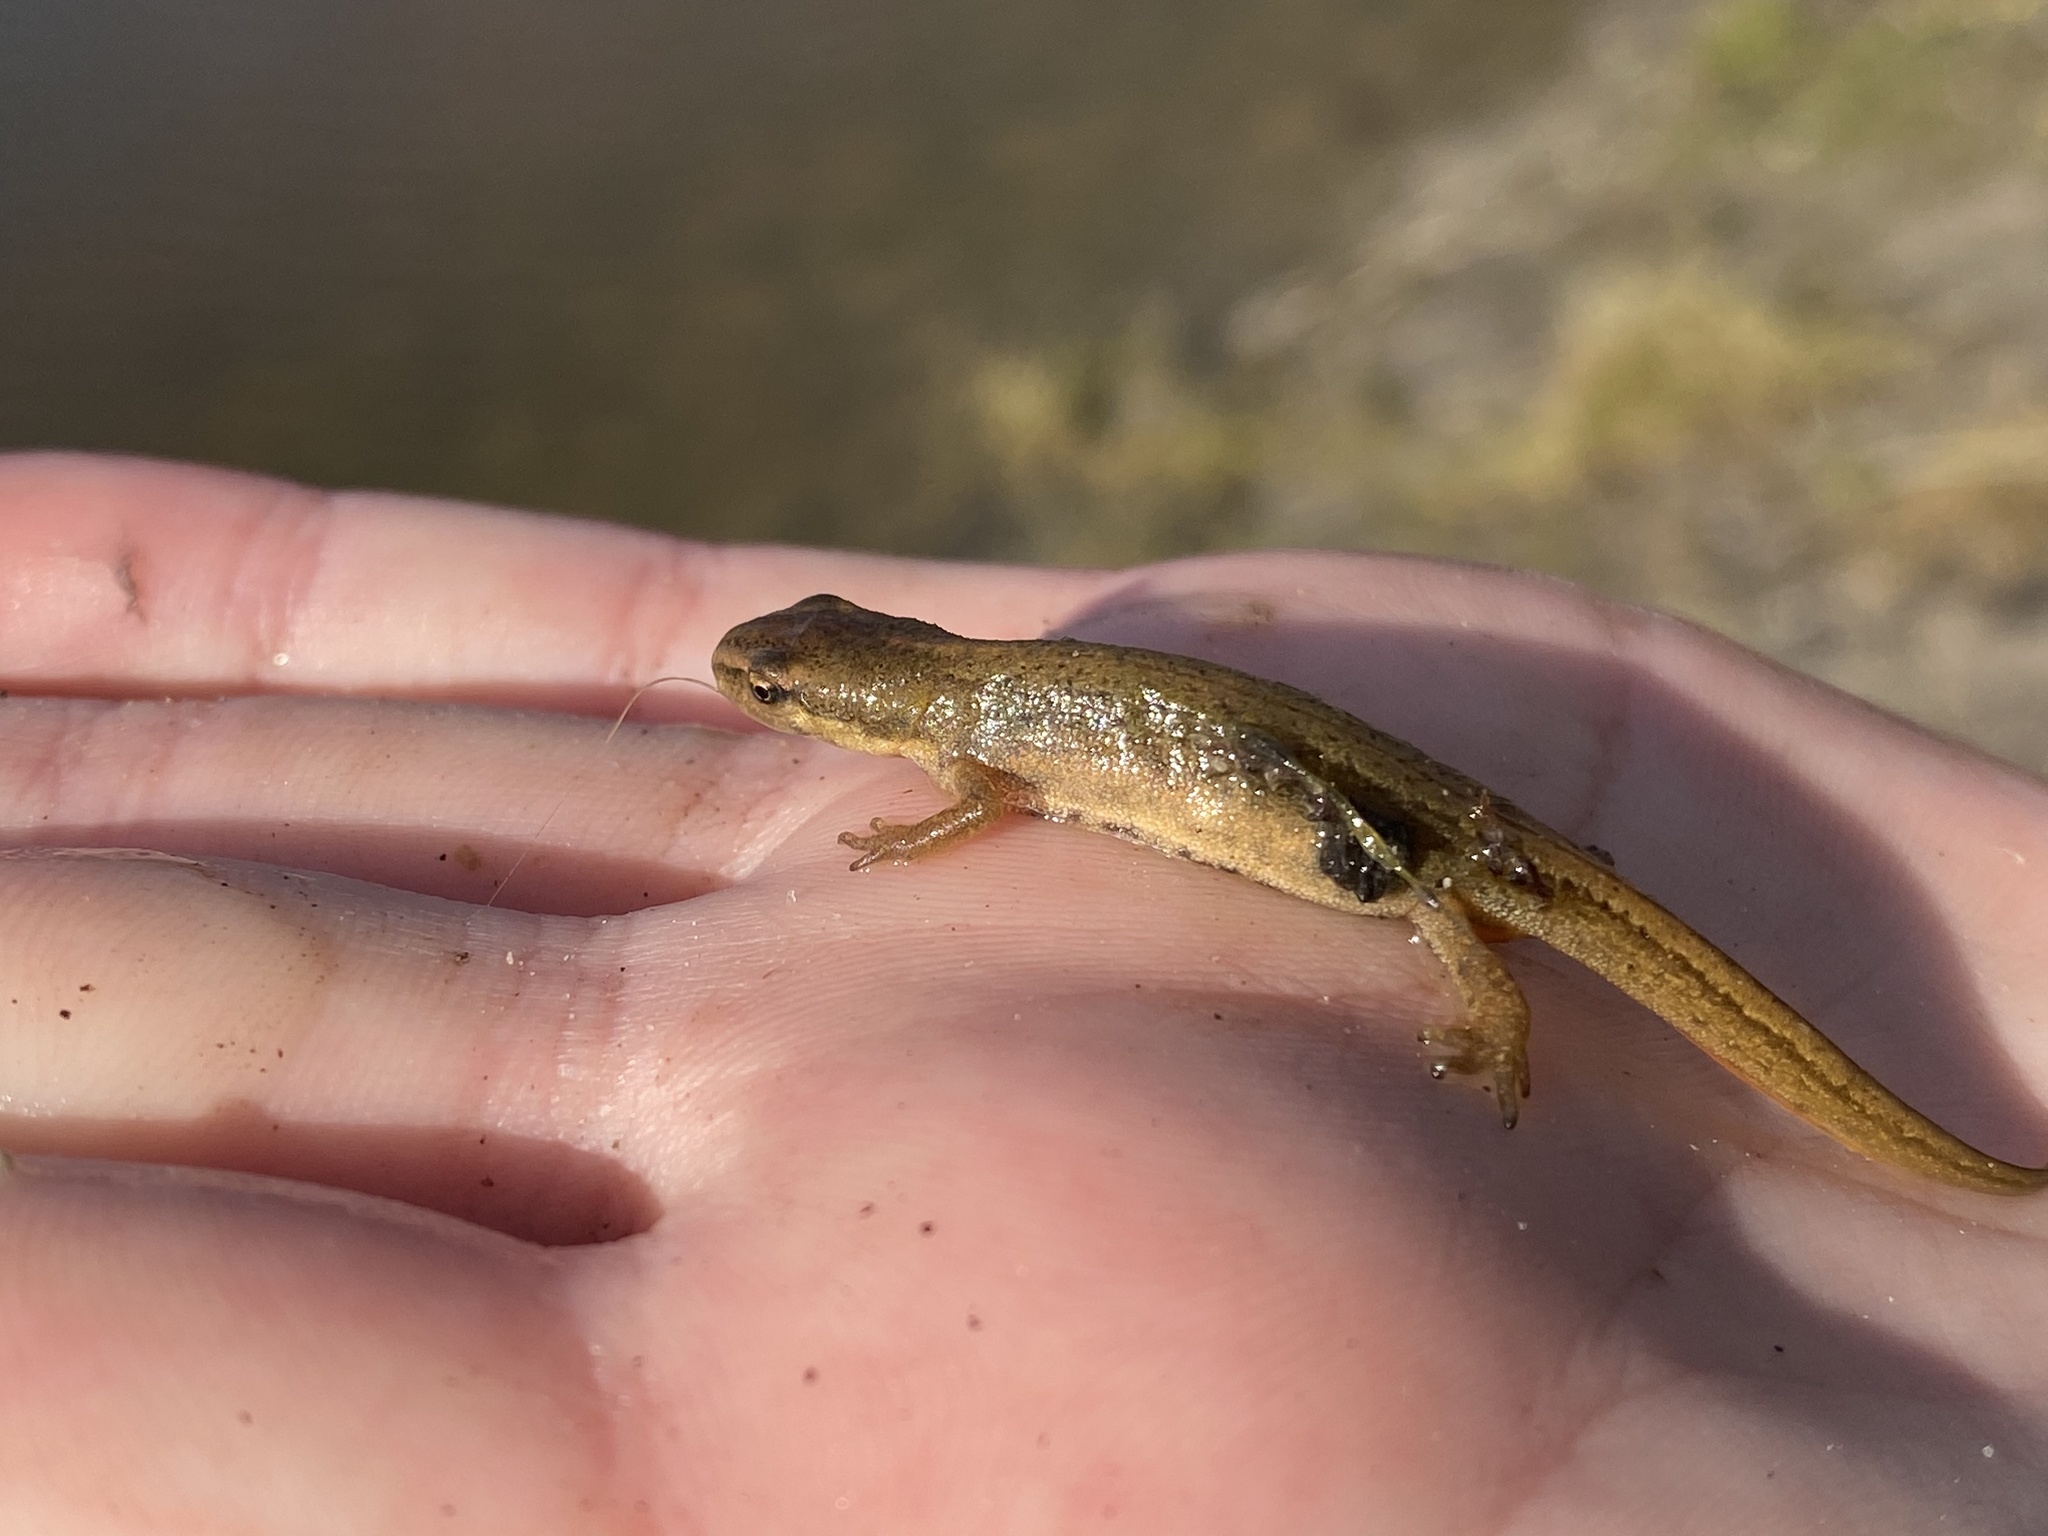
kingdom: Animalia
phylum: Chordata
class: Amphibia
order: Caudata
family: Salamandridae
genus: Lissotriton
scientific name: Lissotriton vulgaris
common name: Smooth newt
